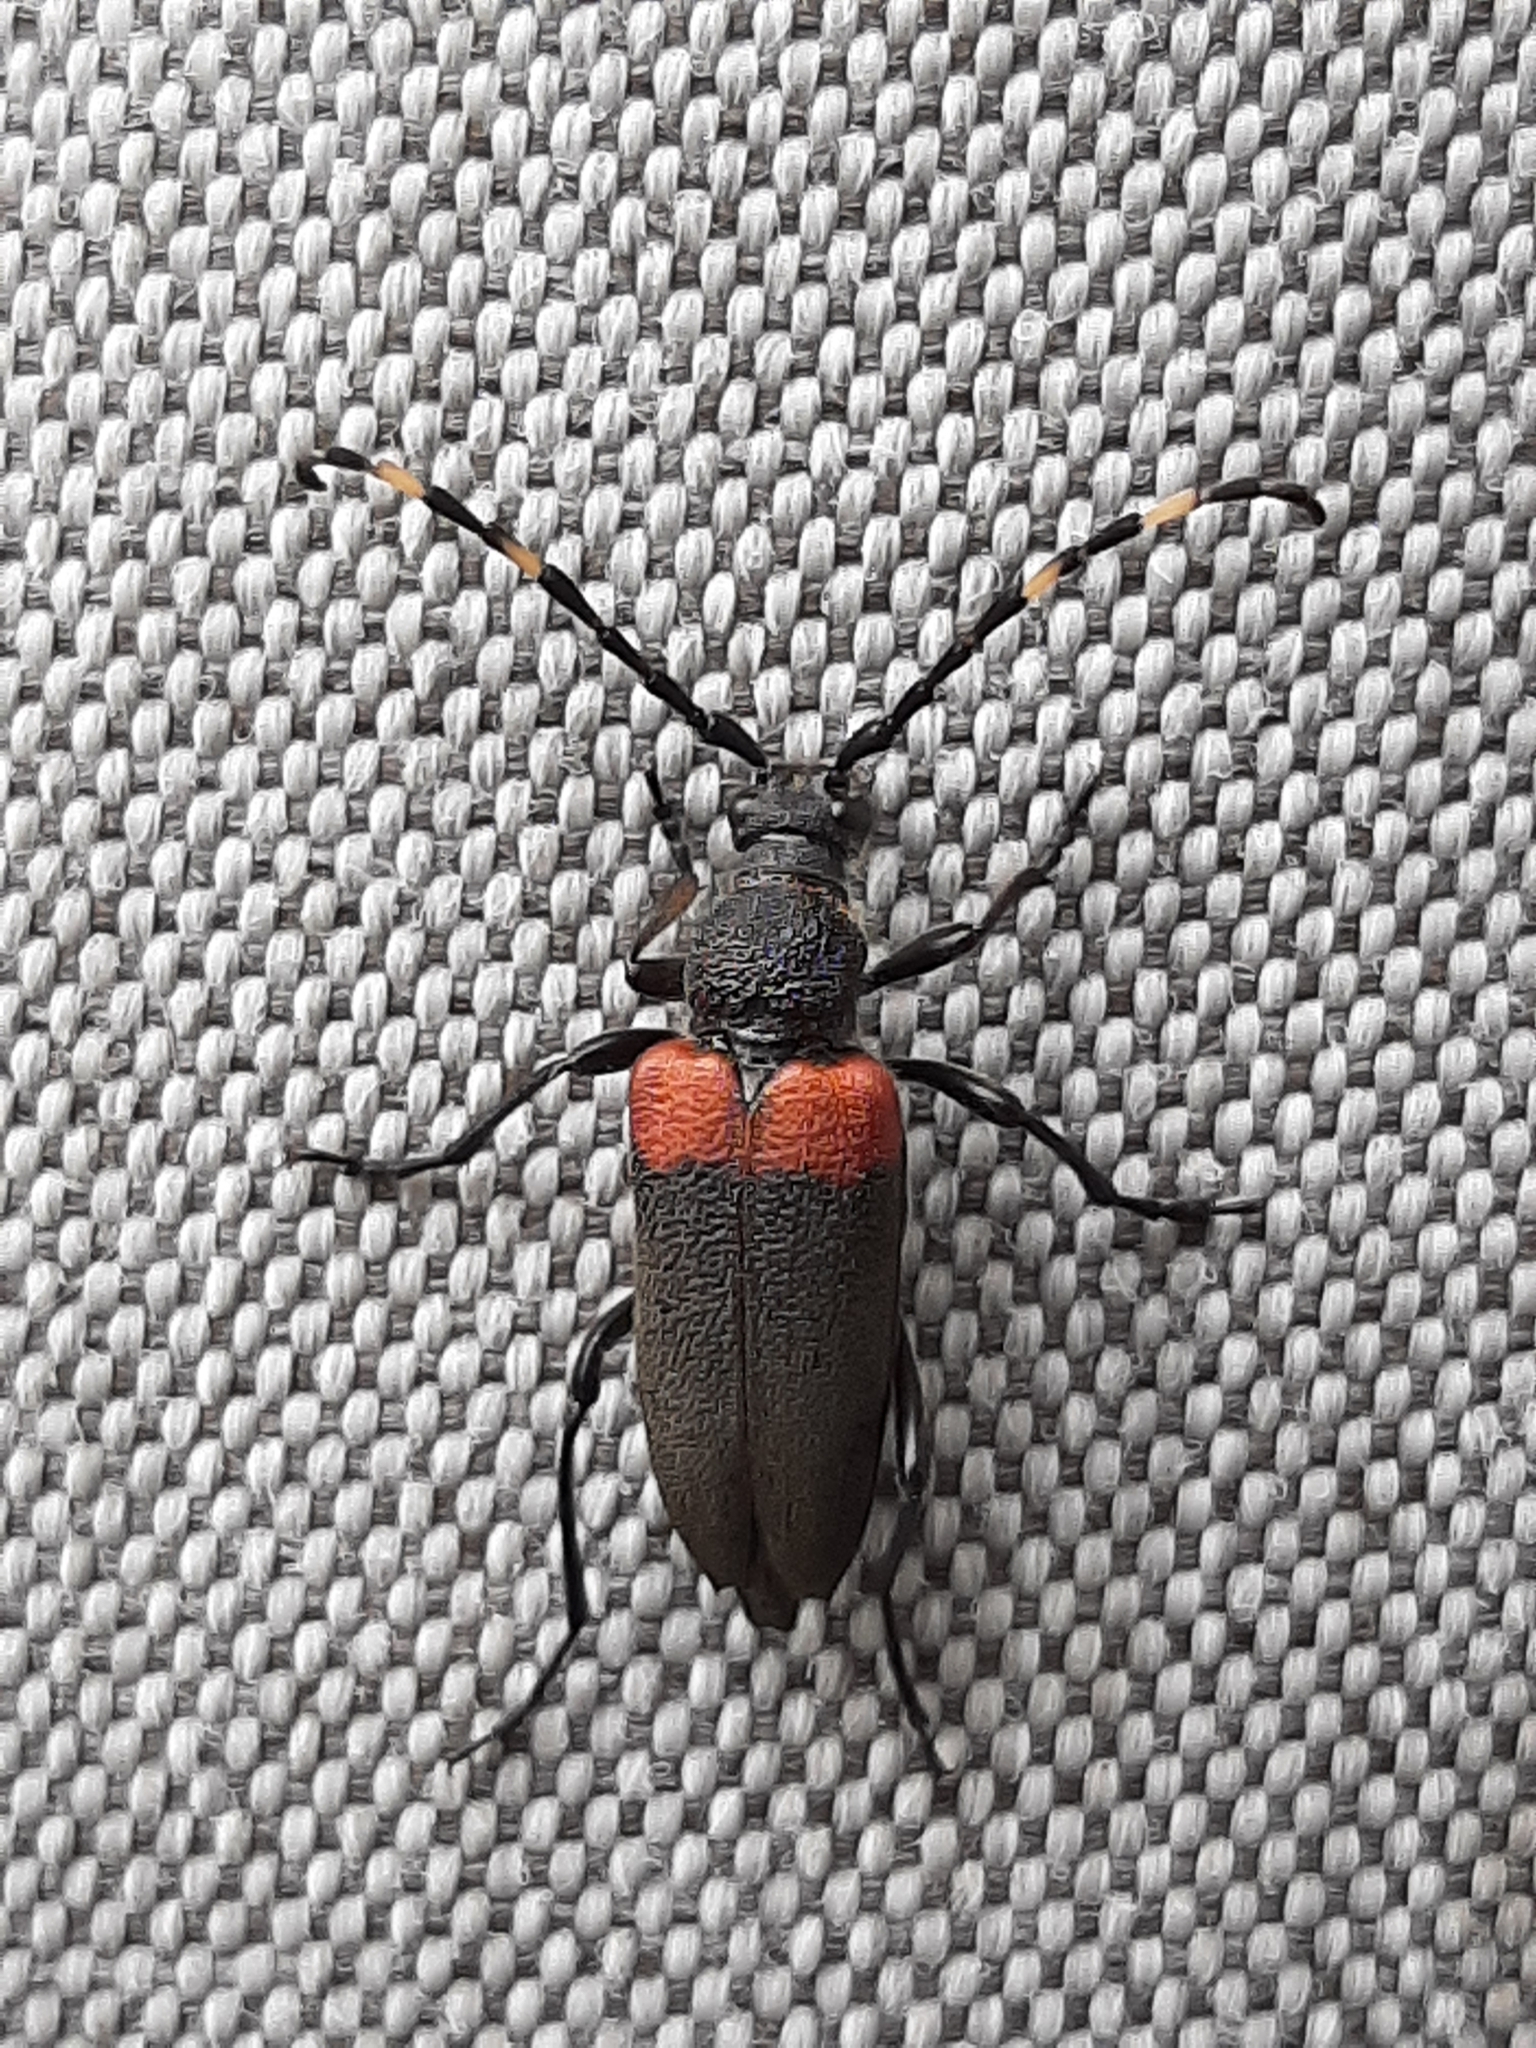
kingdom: Animalia
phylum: Arthropoda
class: Insecta
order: Coleoptera
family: Cerambycidae
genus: Stictoleptura
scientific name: Stictoleptura canadensis
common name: Red-shouldered pine borer
